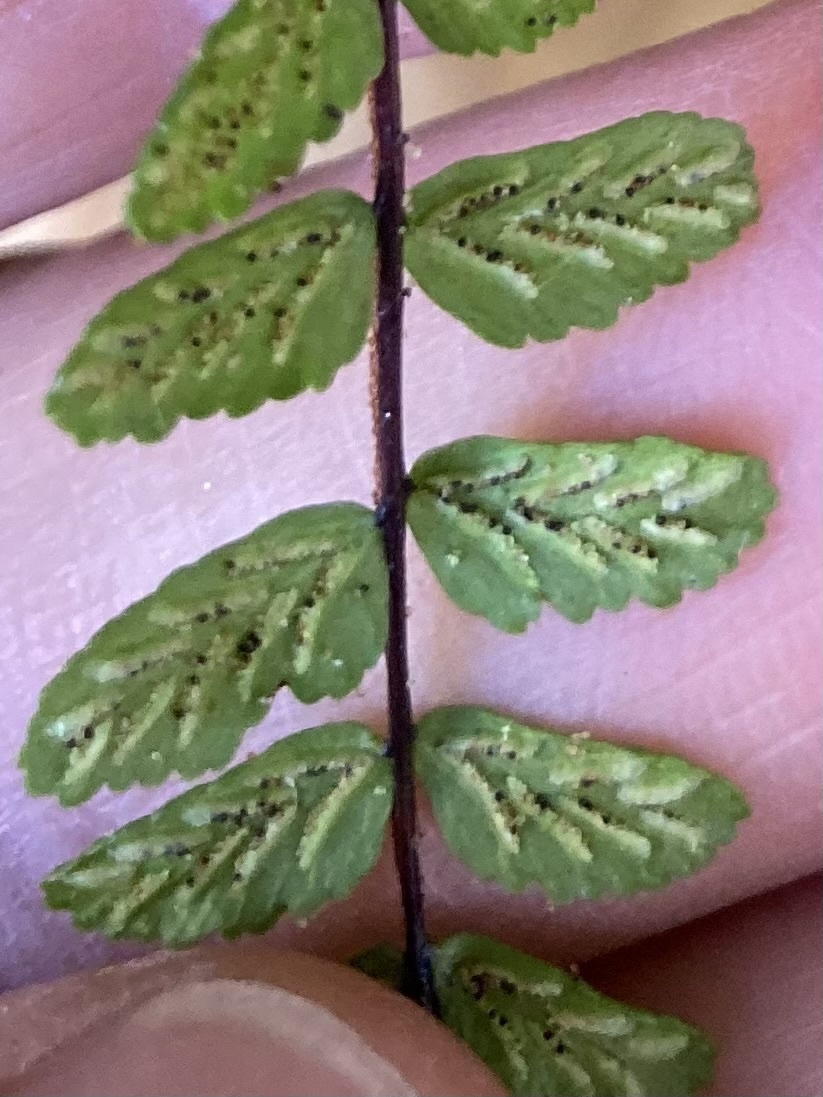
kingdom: Plantae
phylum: Tracheophyta
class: Polypodiopsida
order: Polypodiales
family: Aspleniaceae
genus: Asplenium
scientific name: Asplenium trichomanes
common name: Maidenhair spleenwort
